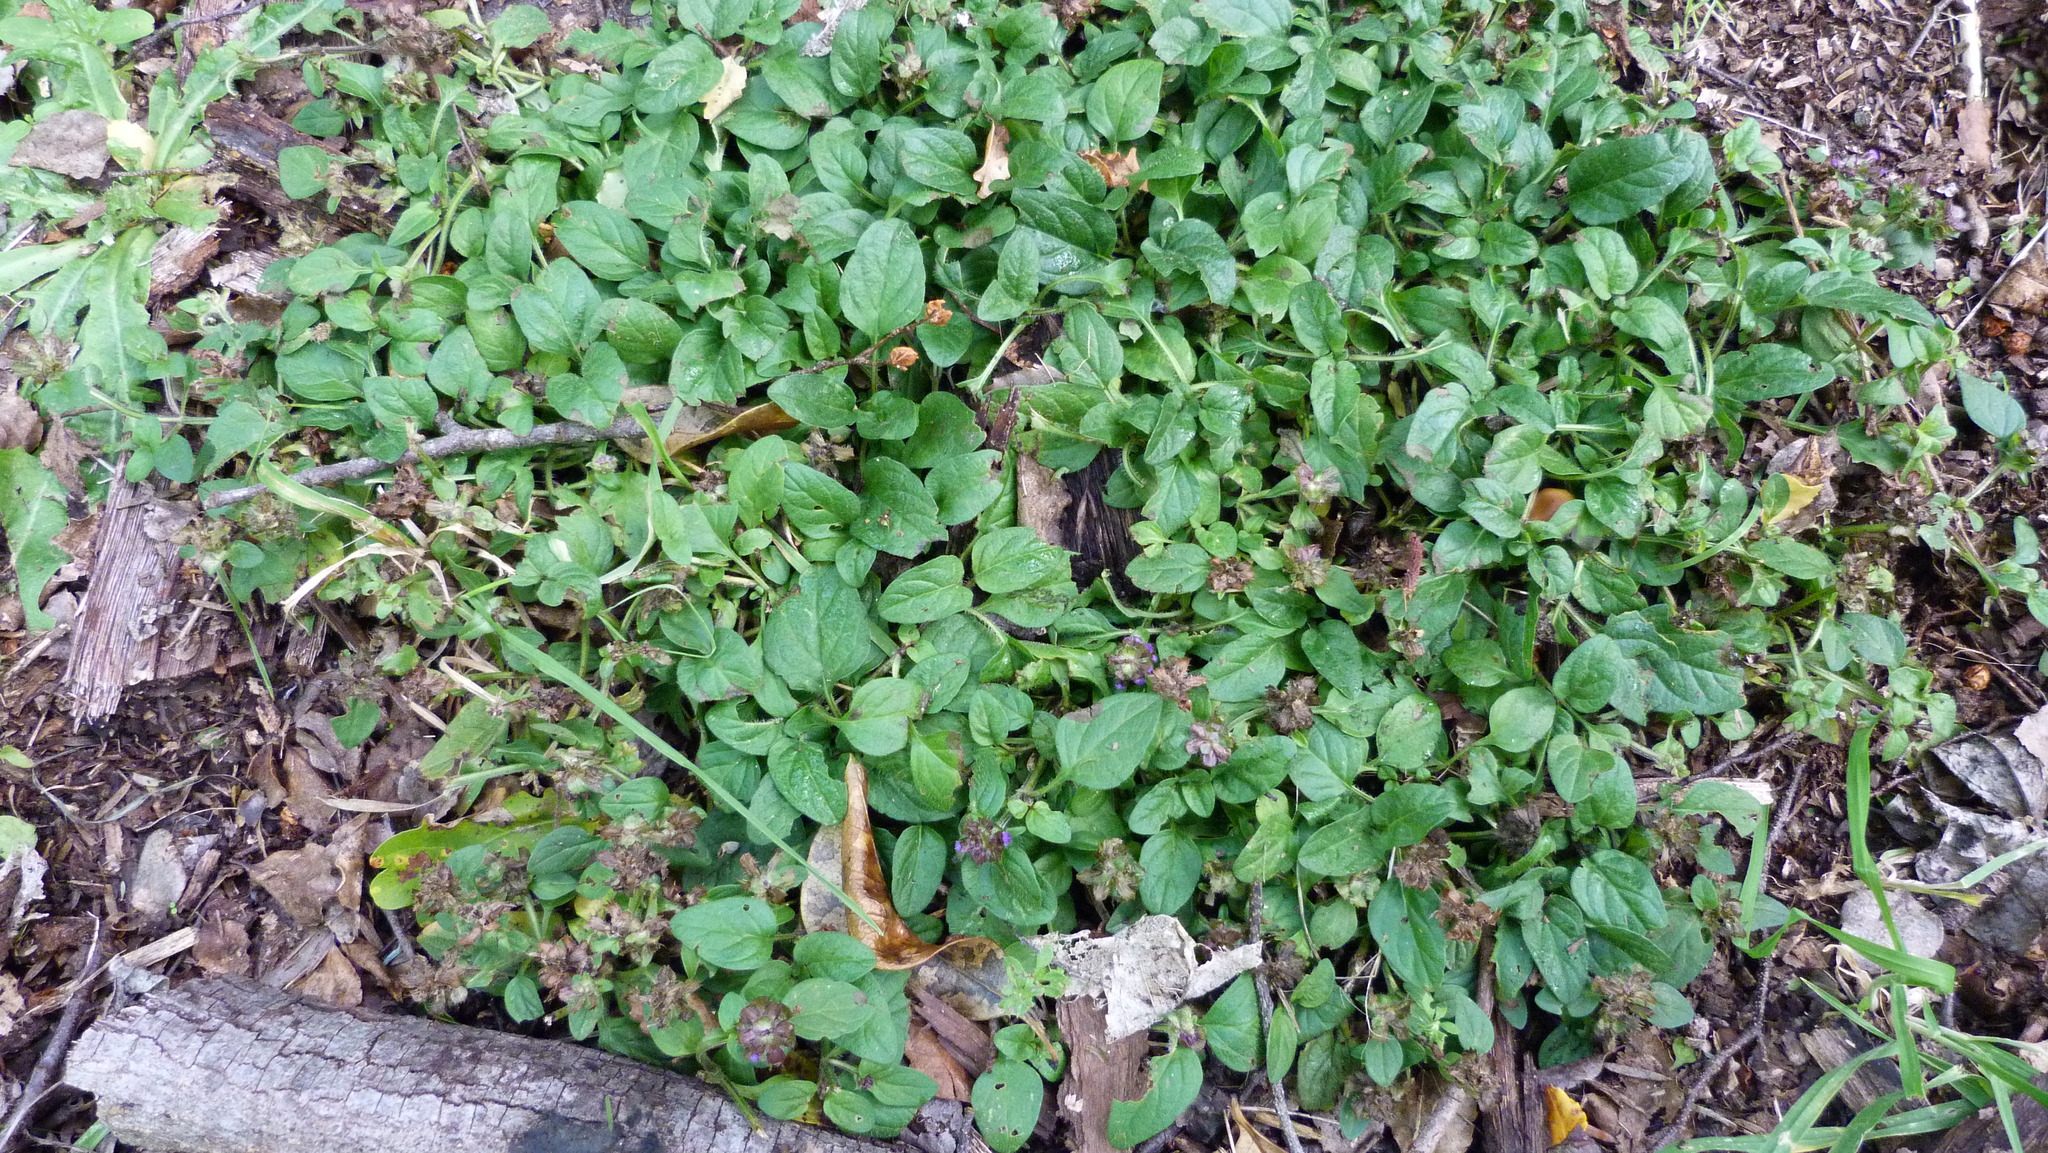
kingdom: Plantae
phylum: Tracheophyta
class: Magnoliopsida
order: Lamiales
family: Lamiaceae
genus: Prunella
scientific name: Prunella vulgaris
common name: Heal-all
